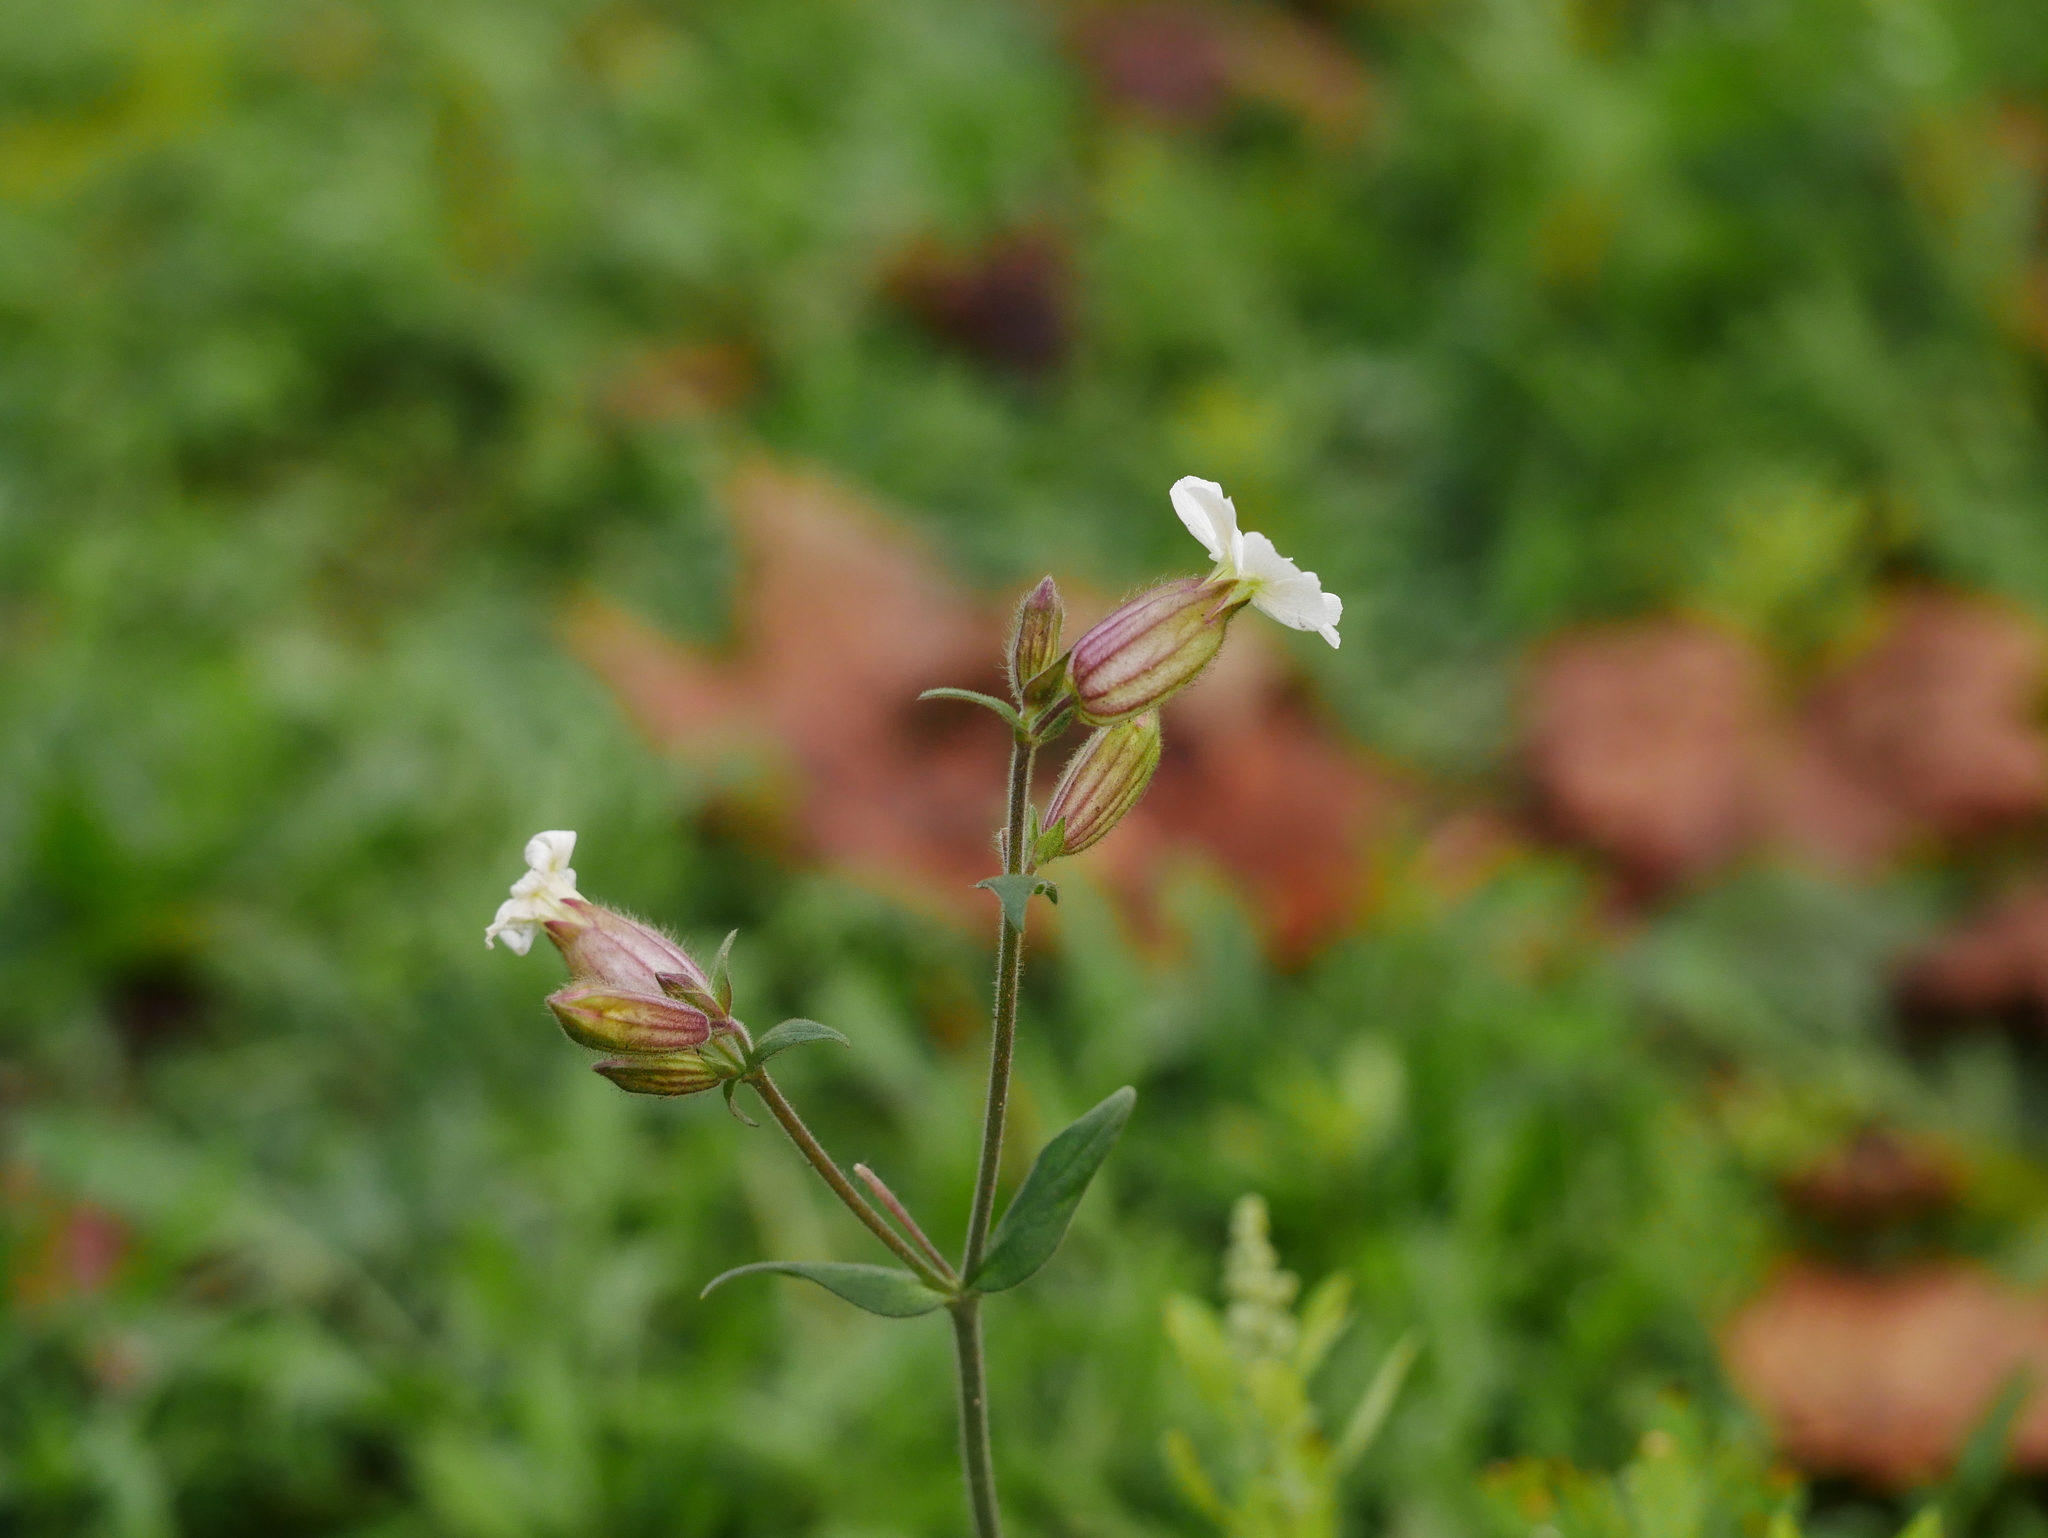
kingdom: Plantae
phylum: Tracheophyta
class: Magnoliopsida
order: Caryophyllales
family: Caryophyllaceae
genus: Silene
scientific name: Silene latifolia
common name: White campion
